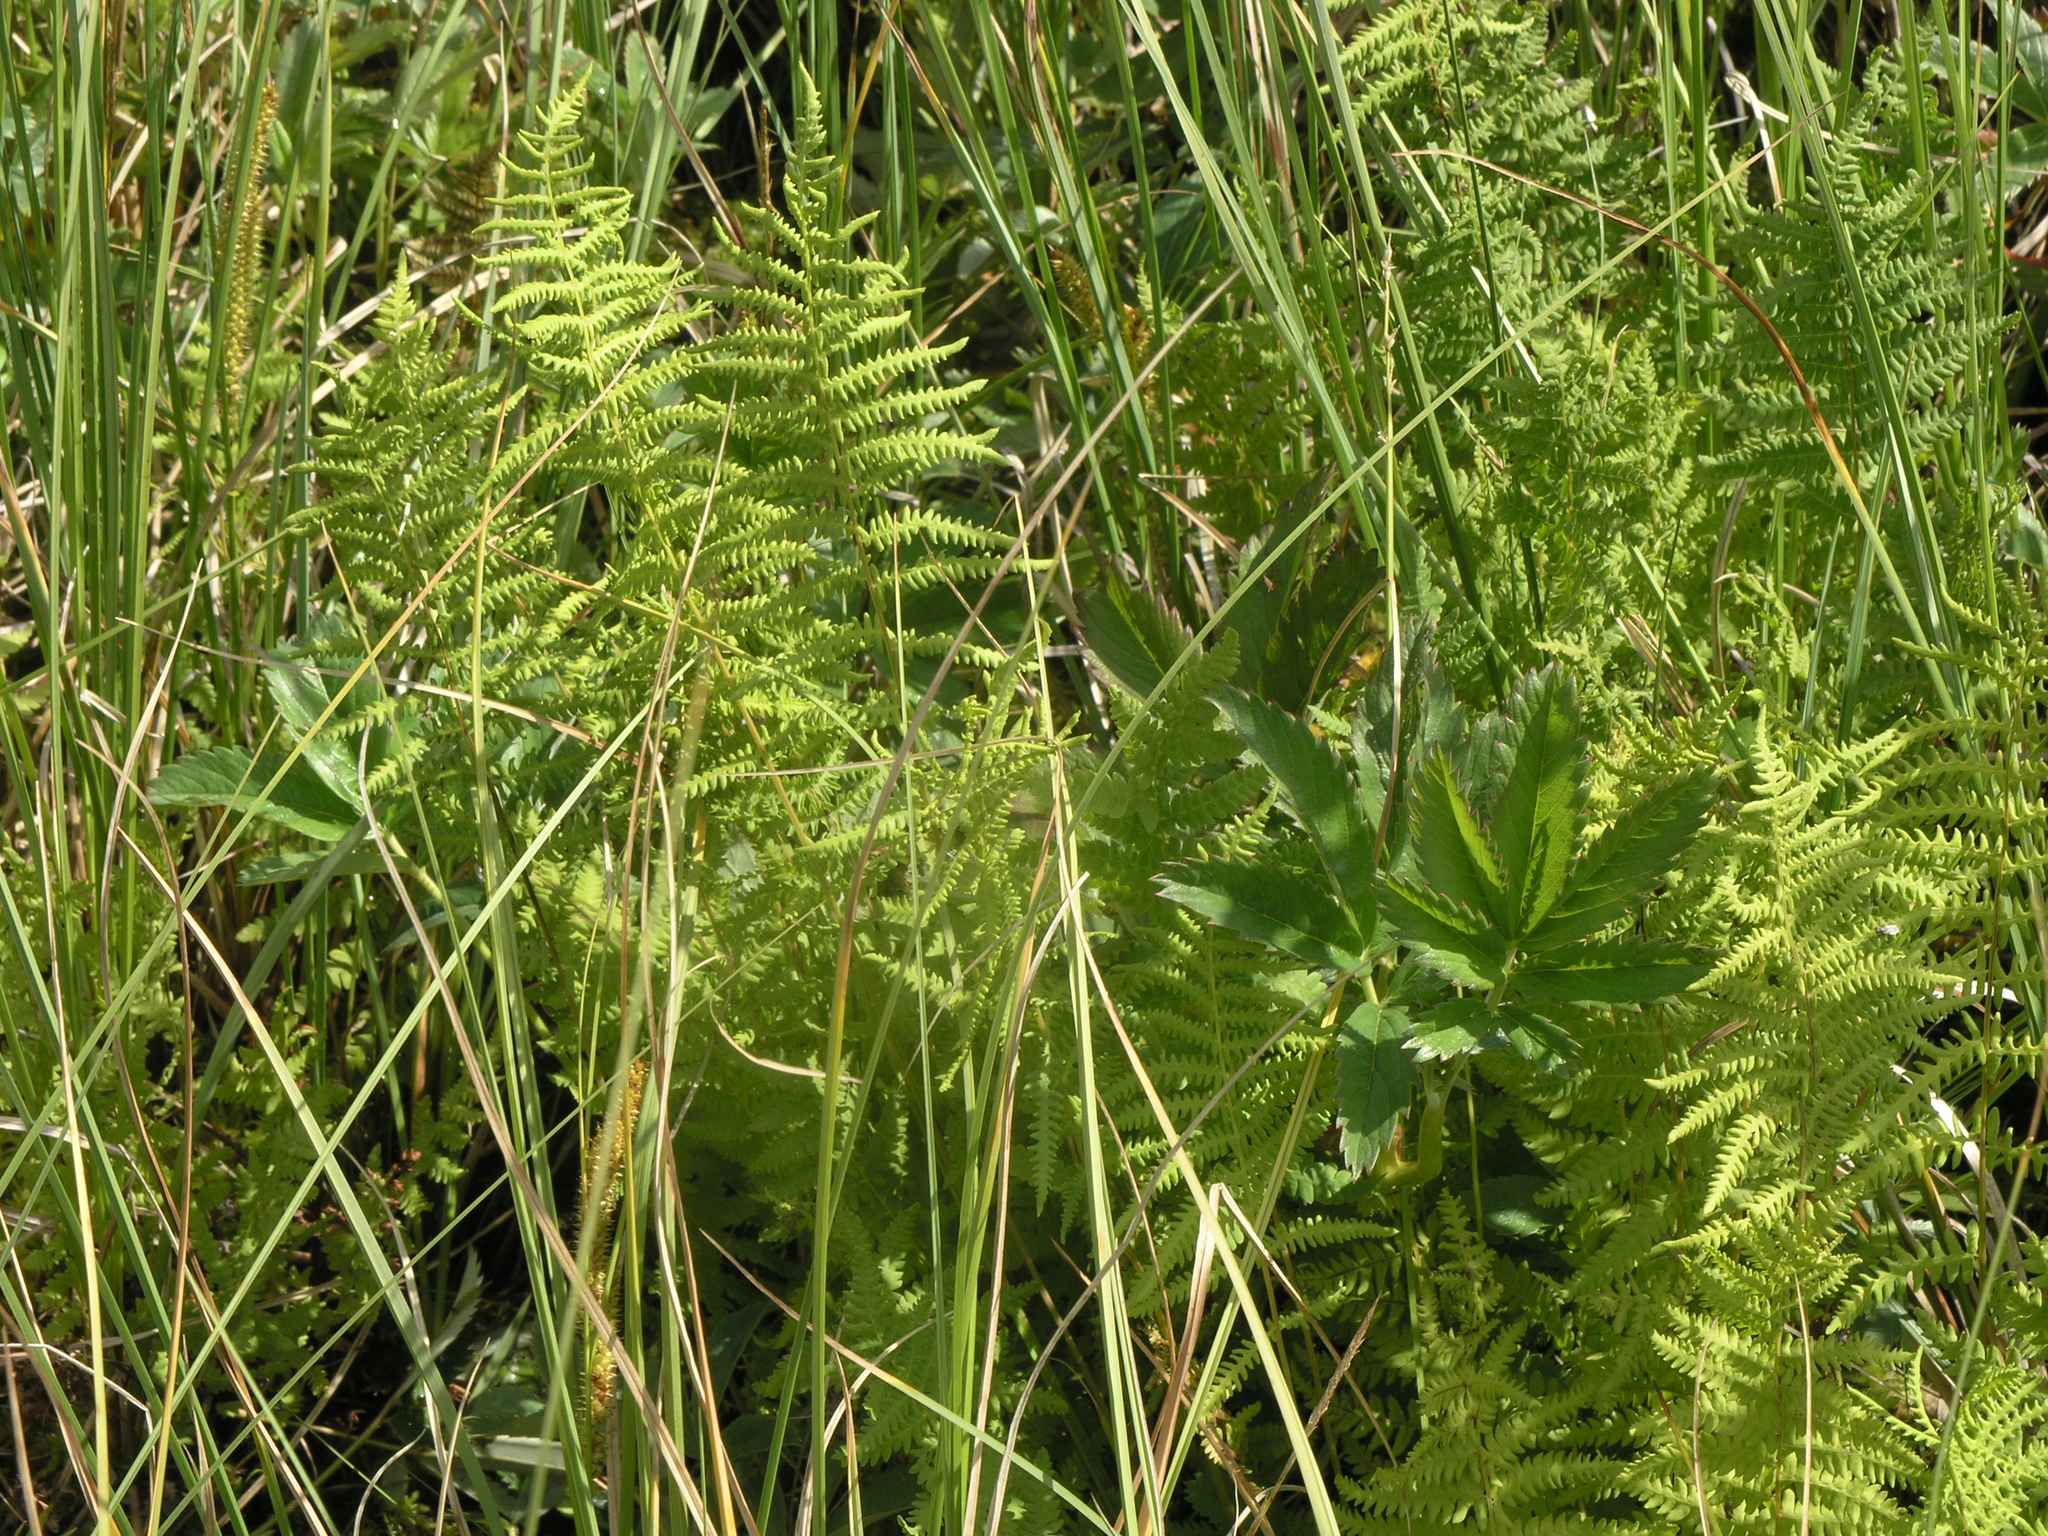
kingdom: Plantae
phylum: Tracheophyta
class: Polypodiopsida
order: Polypodiales
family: Thelypteridaceae
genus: Thelypteris
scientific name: Thelypteris palustris
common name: Marsh fern
